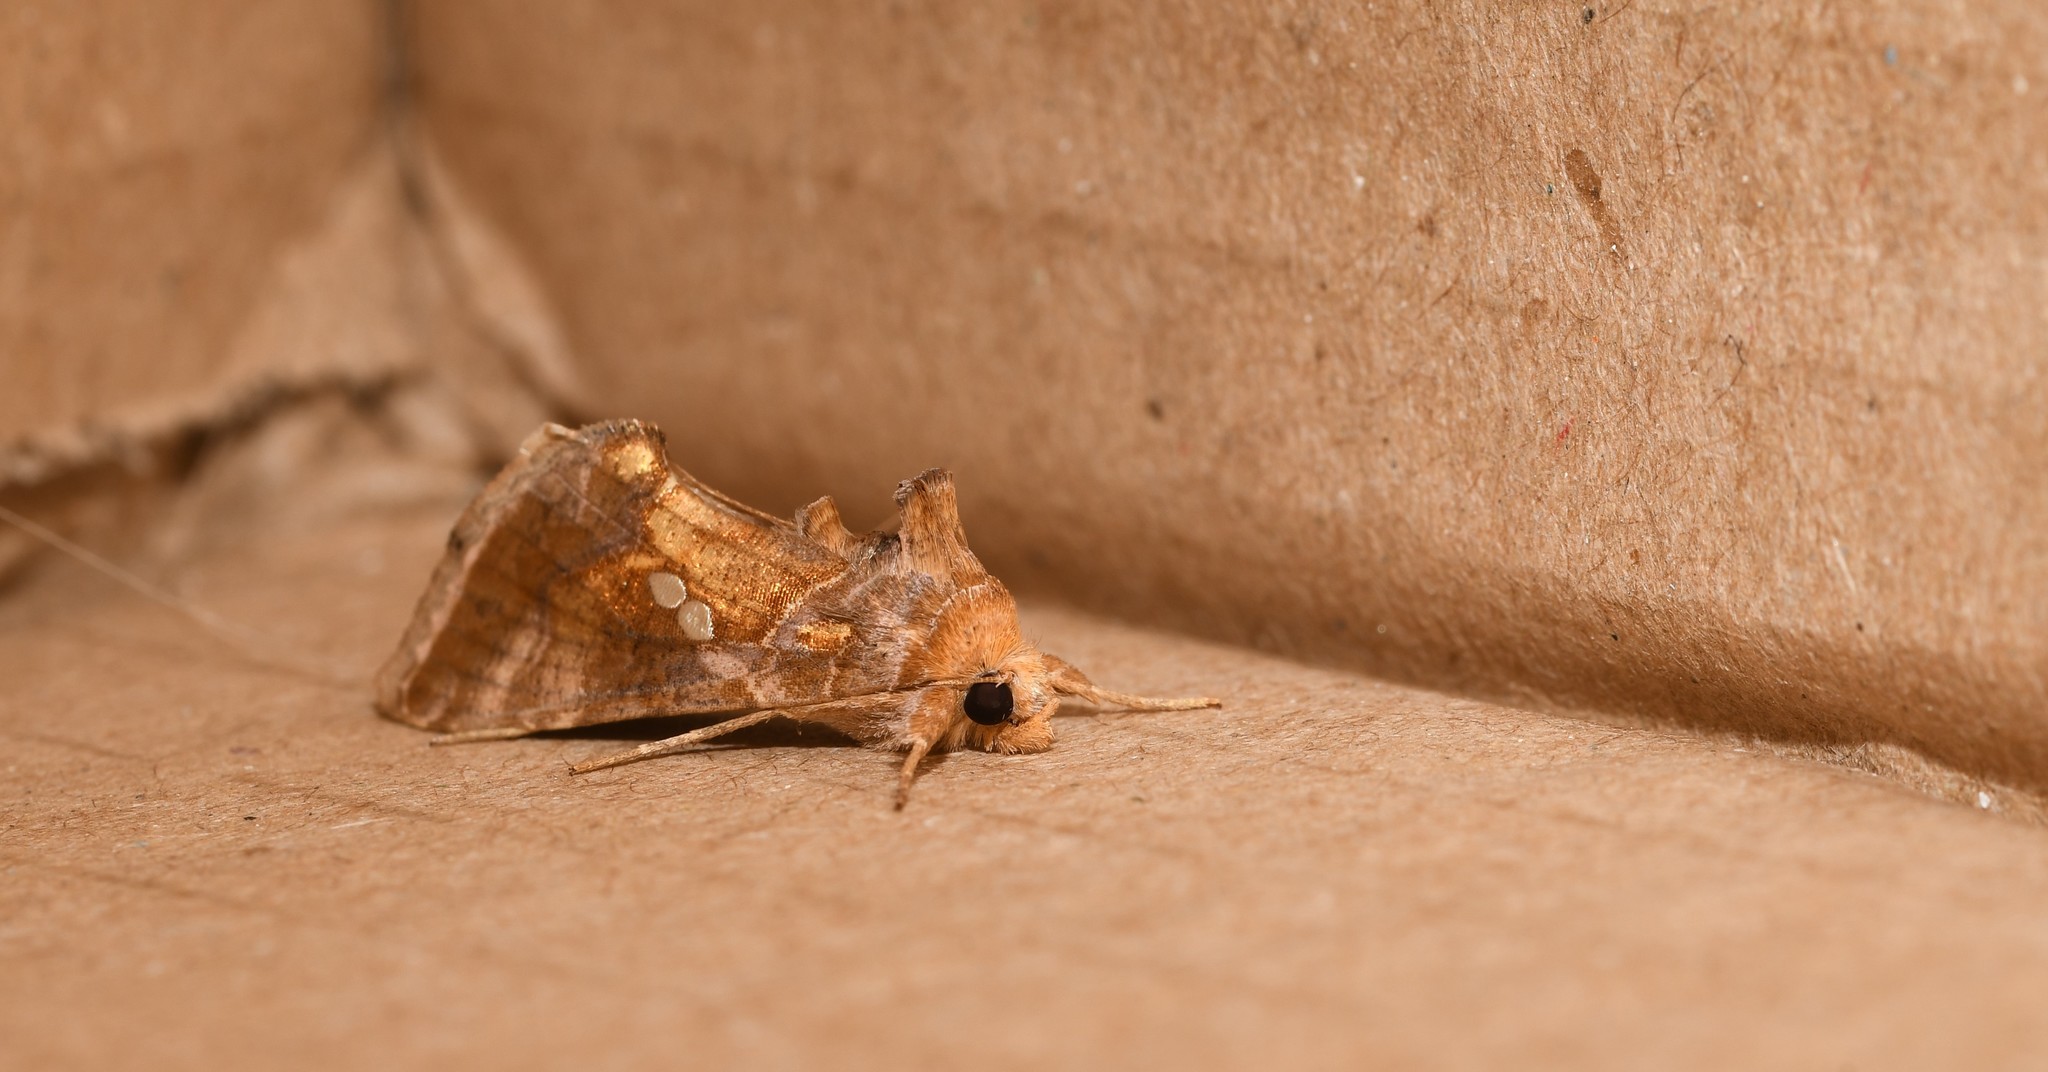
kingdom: Animalia
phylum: Arthropoda
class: Insecta
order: Lepidoptera
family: Noctuidae
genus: Chrysodeixis
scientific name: Chrysodeixis chalcites
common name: Golden twin-spot
